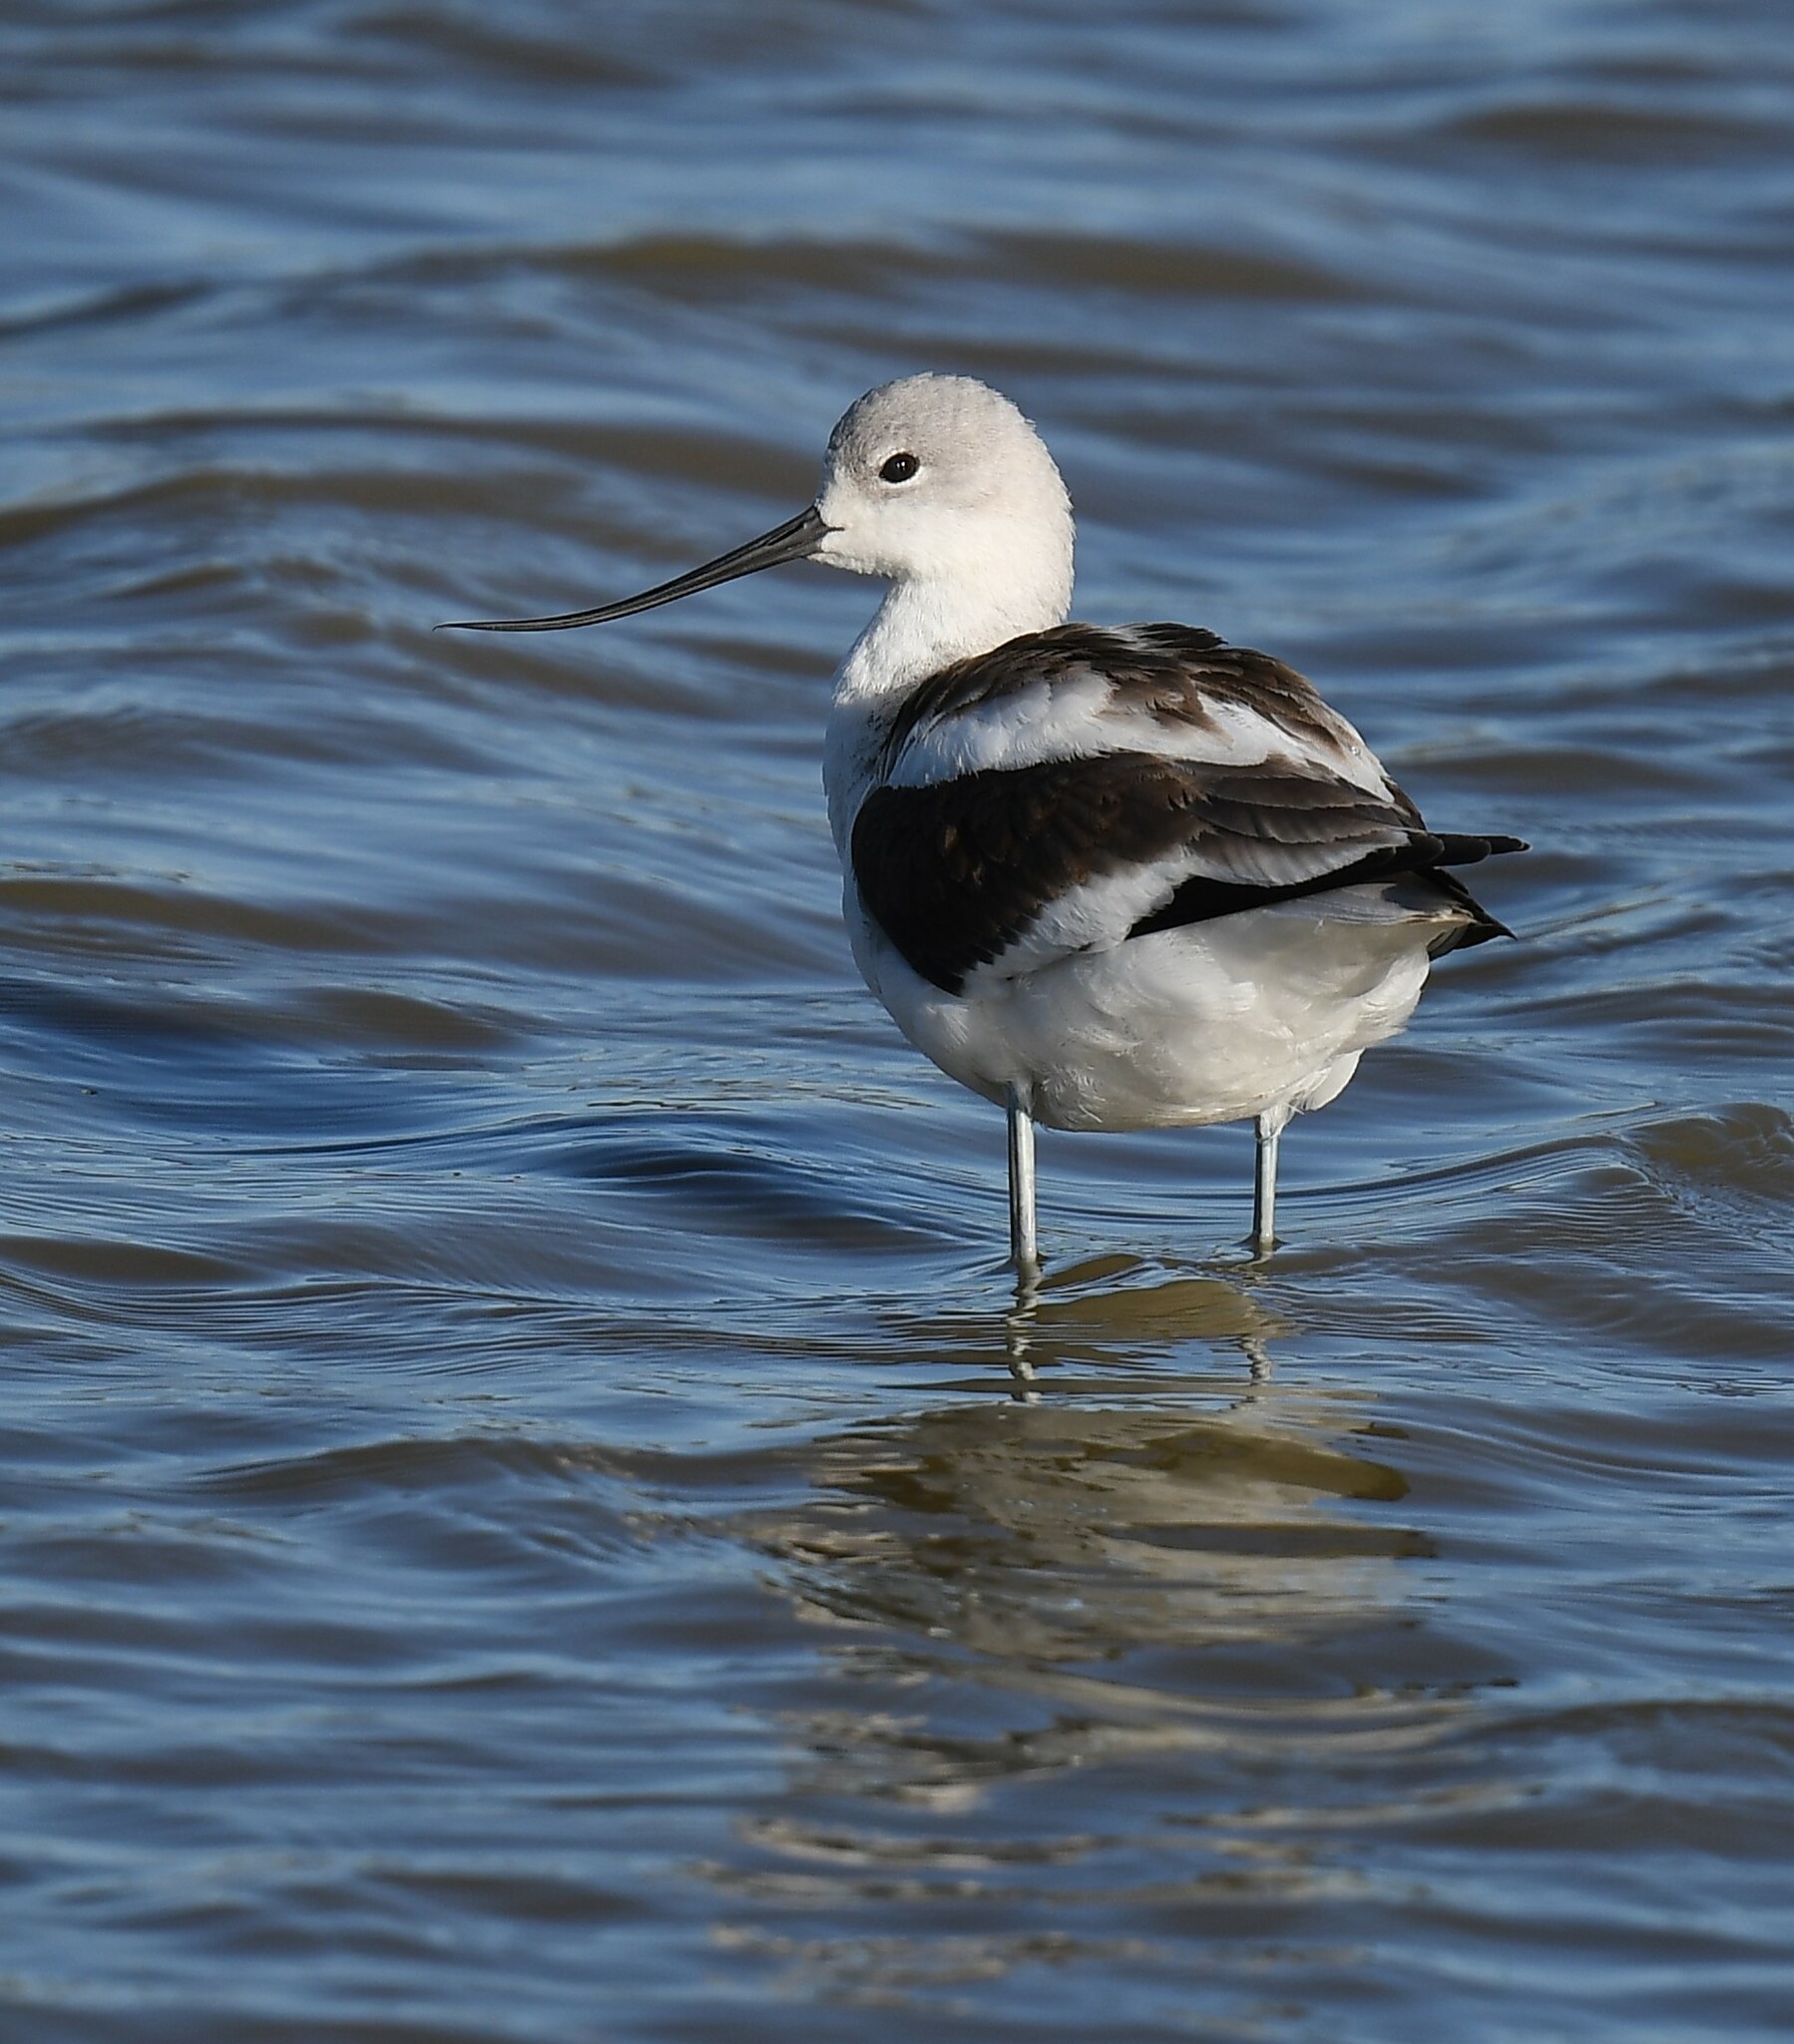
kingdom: Animalia
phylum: Chordata
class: Aves
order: Charadriiformes
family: Recurvirostridae
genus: Recurvirostra
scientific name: Recurvirostra americana
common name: American avocet
